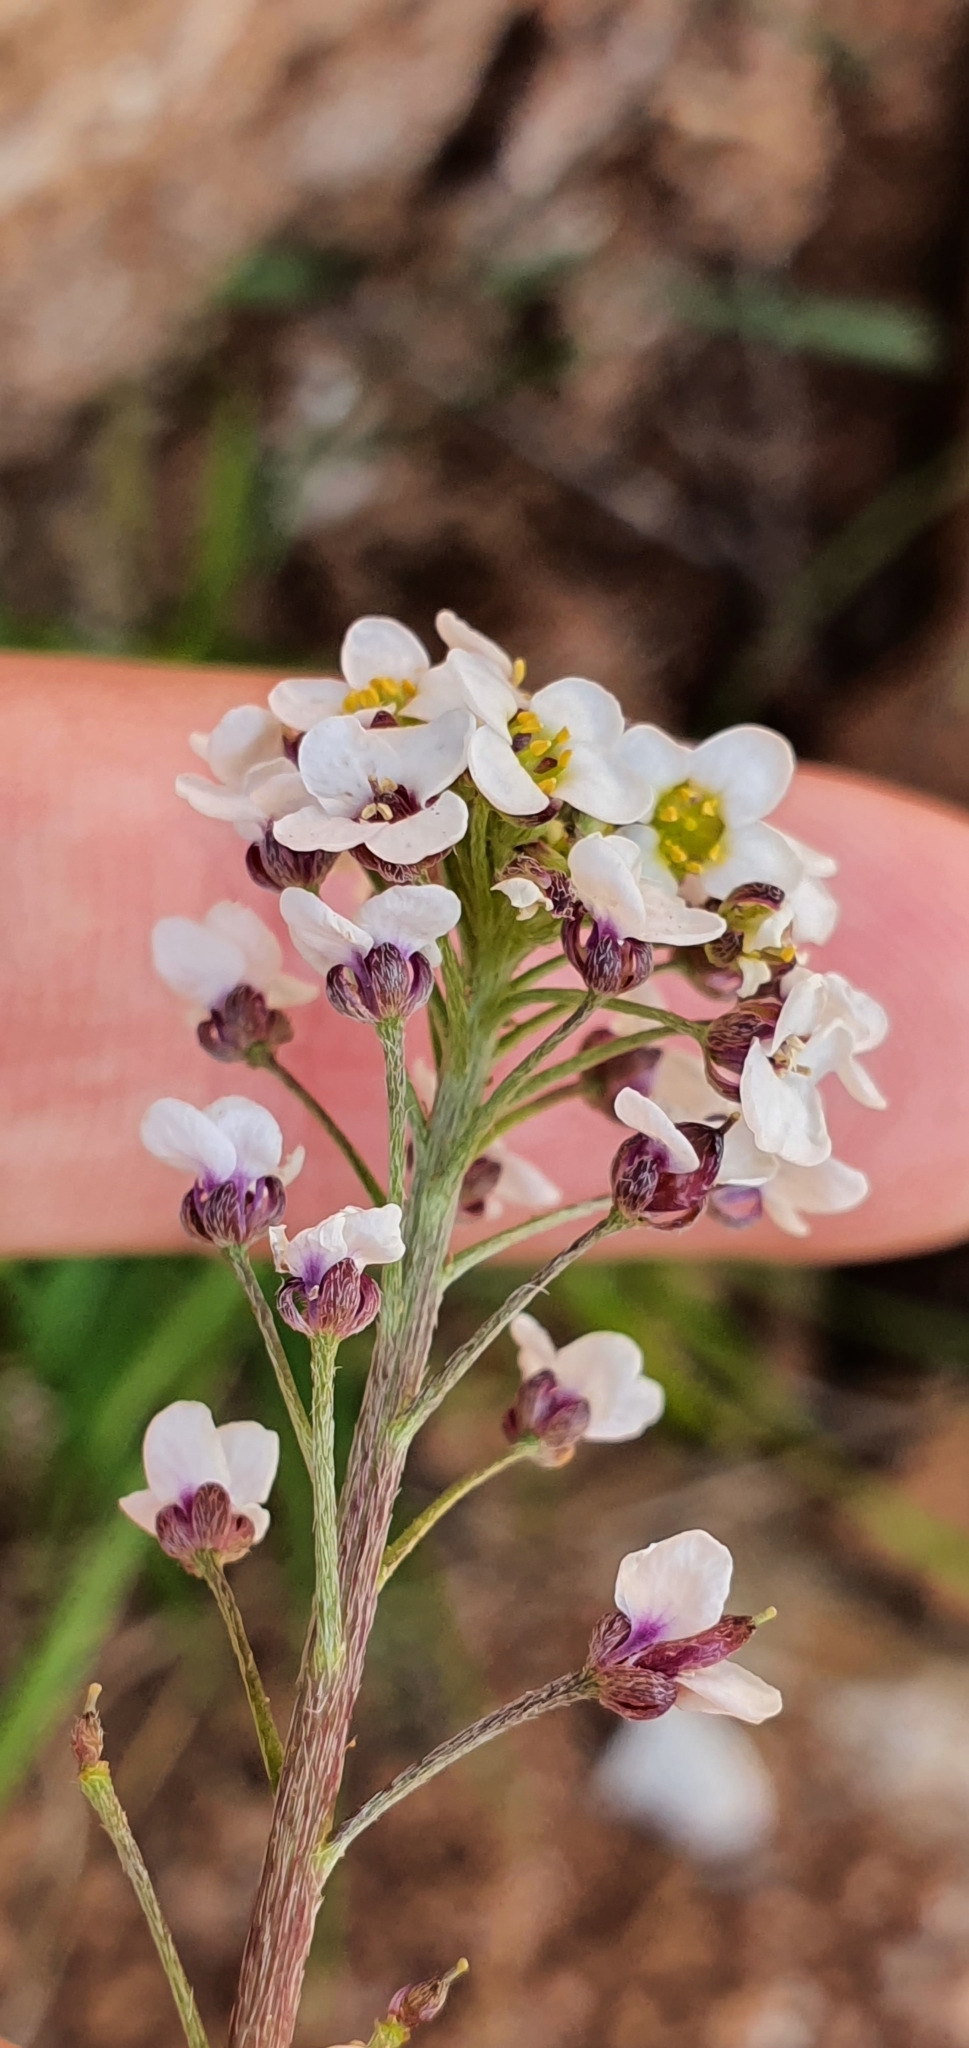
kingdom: Plantae
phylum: Tracheophyta
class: Magnoliopsida
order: Brassicales
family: Brassicaceae
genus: Lobularia
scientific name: Lobularia maritima
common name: Sweet alison
